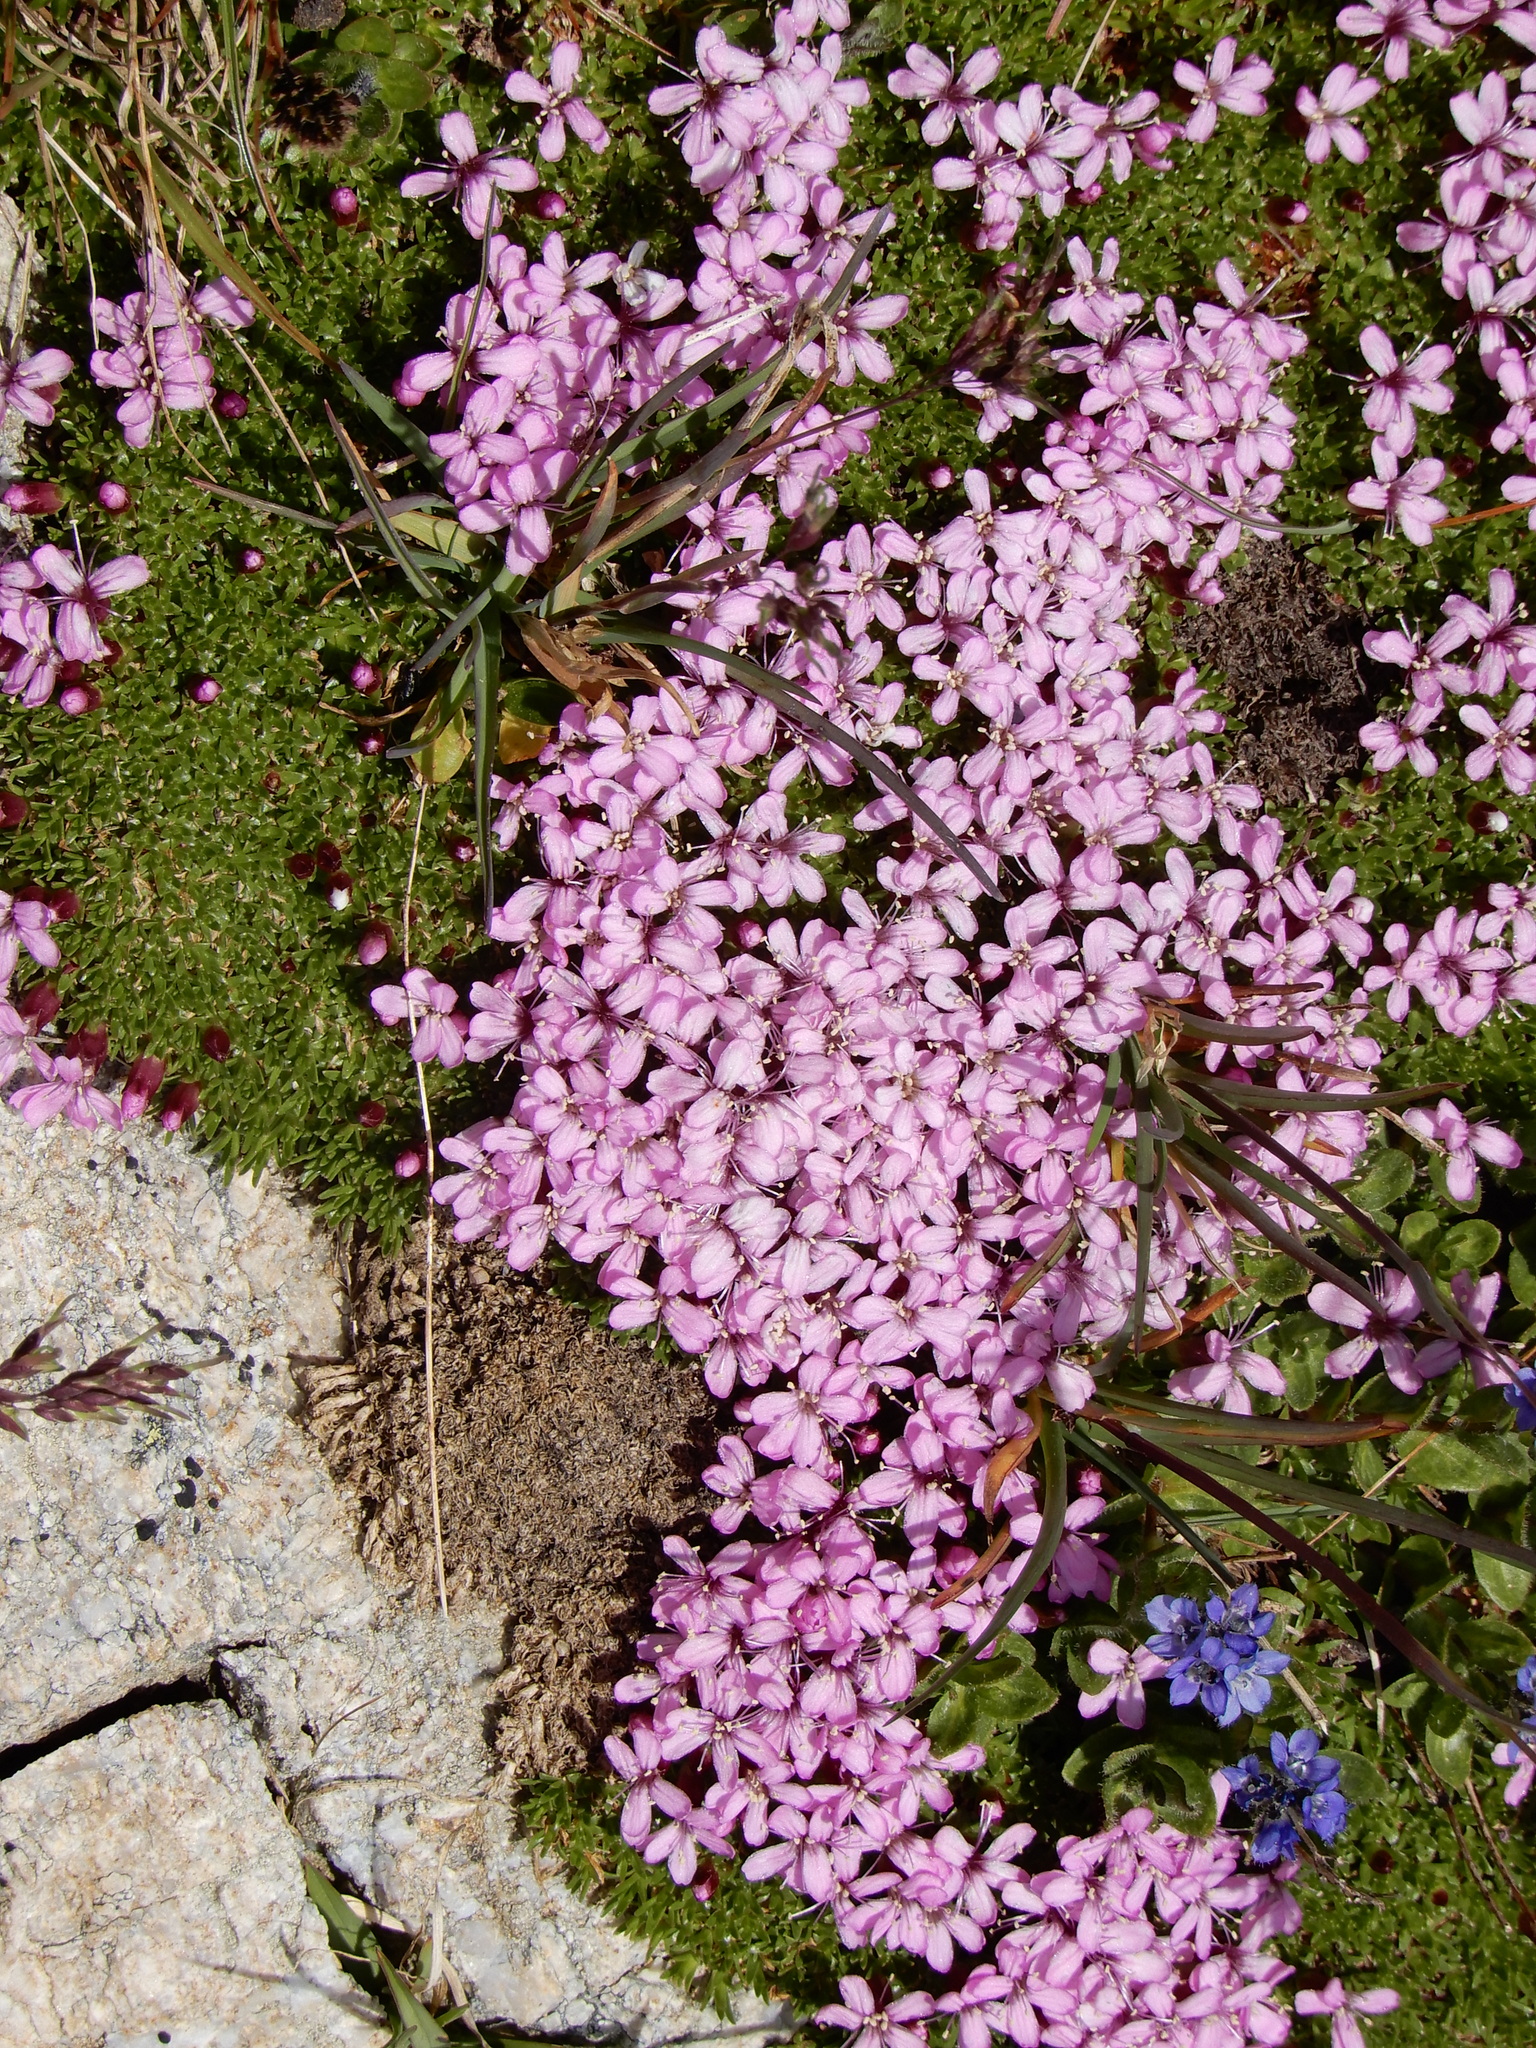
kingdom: Plantae
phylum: Tracheophyta
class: Magnoliopsida
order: Caryophyllales
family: Caryophyllaceae
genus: Silene
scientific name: Silene acaulis
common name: Moss campion
